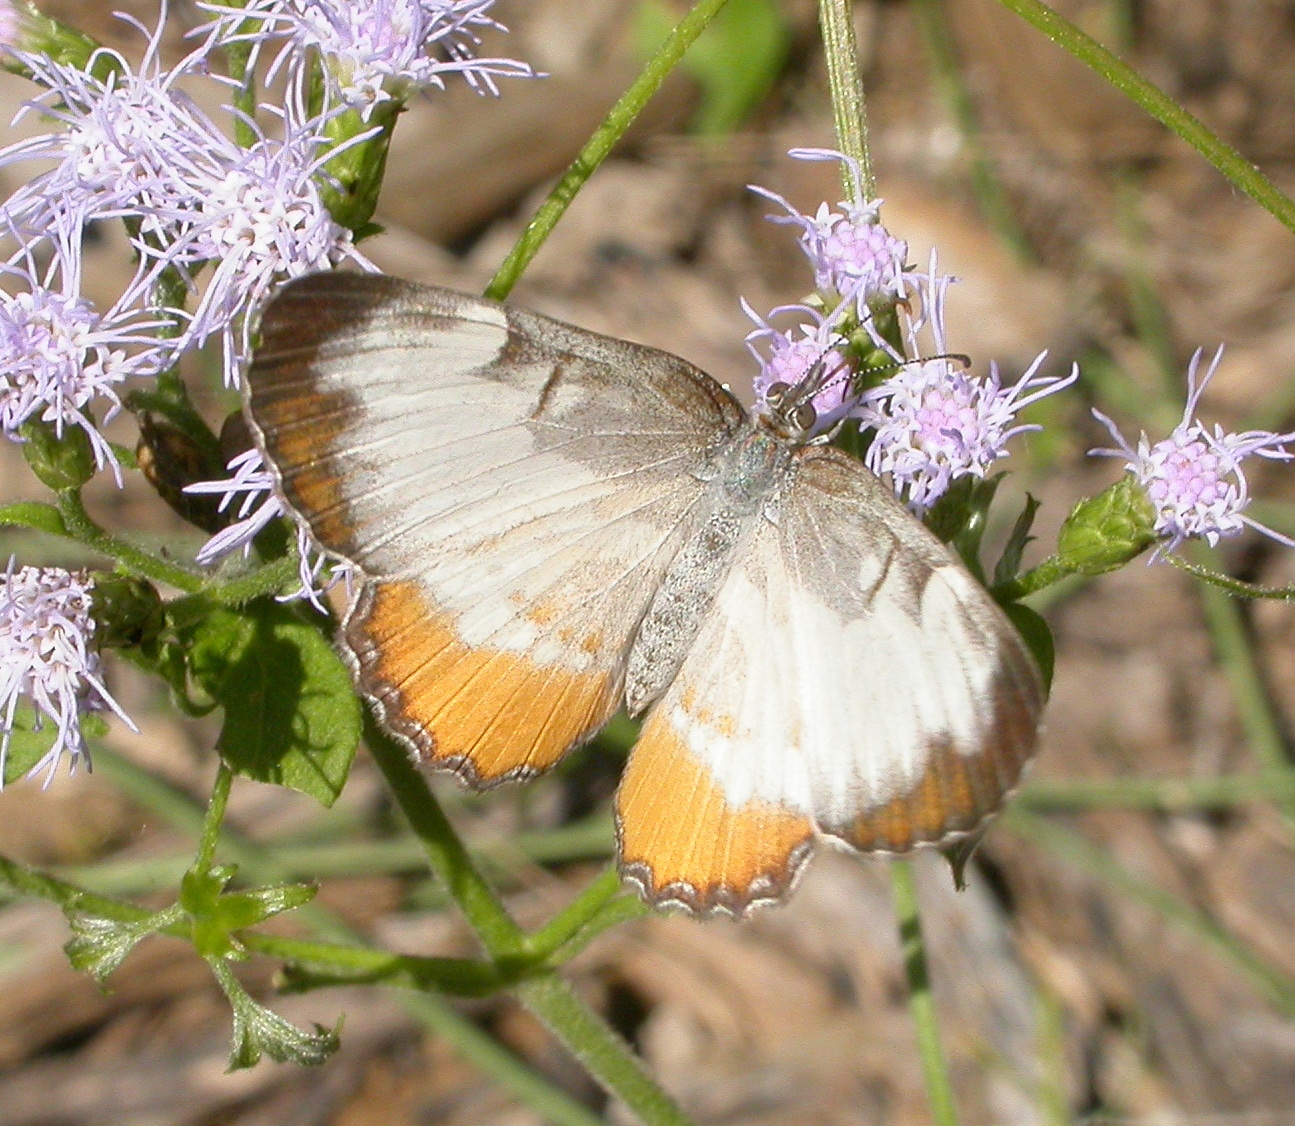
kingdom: Animalia
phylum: Arthropoda
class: Insecta
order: Lepidoptera
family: Nymphalidae
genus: Mestra
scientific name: Mestra amymone
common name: Common mestra
